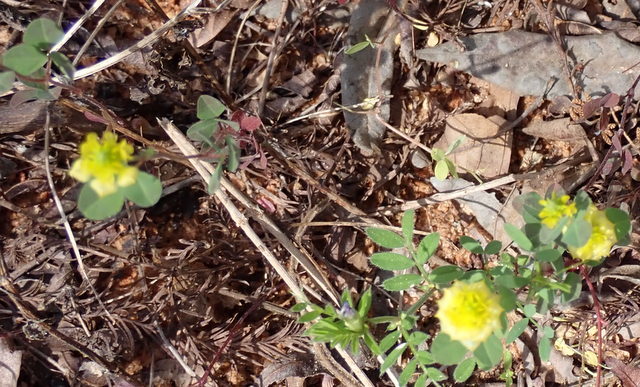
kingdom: Plantae
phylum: Tracheophyta
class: Magnoliopsida
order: Fabales
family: Fabaceae
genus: Trifolium
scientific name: Trifolium campestre
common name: Field clover
